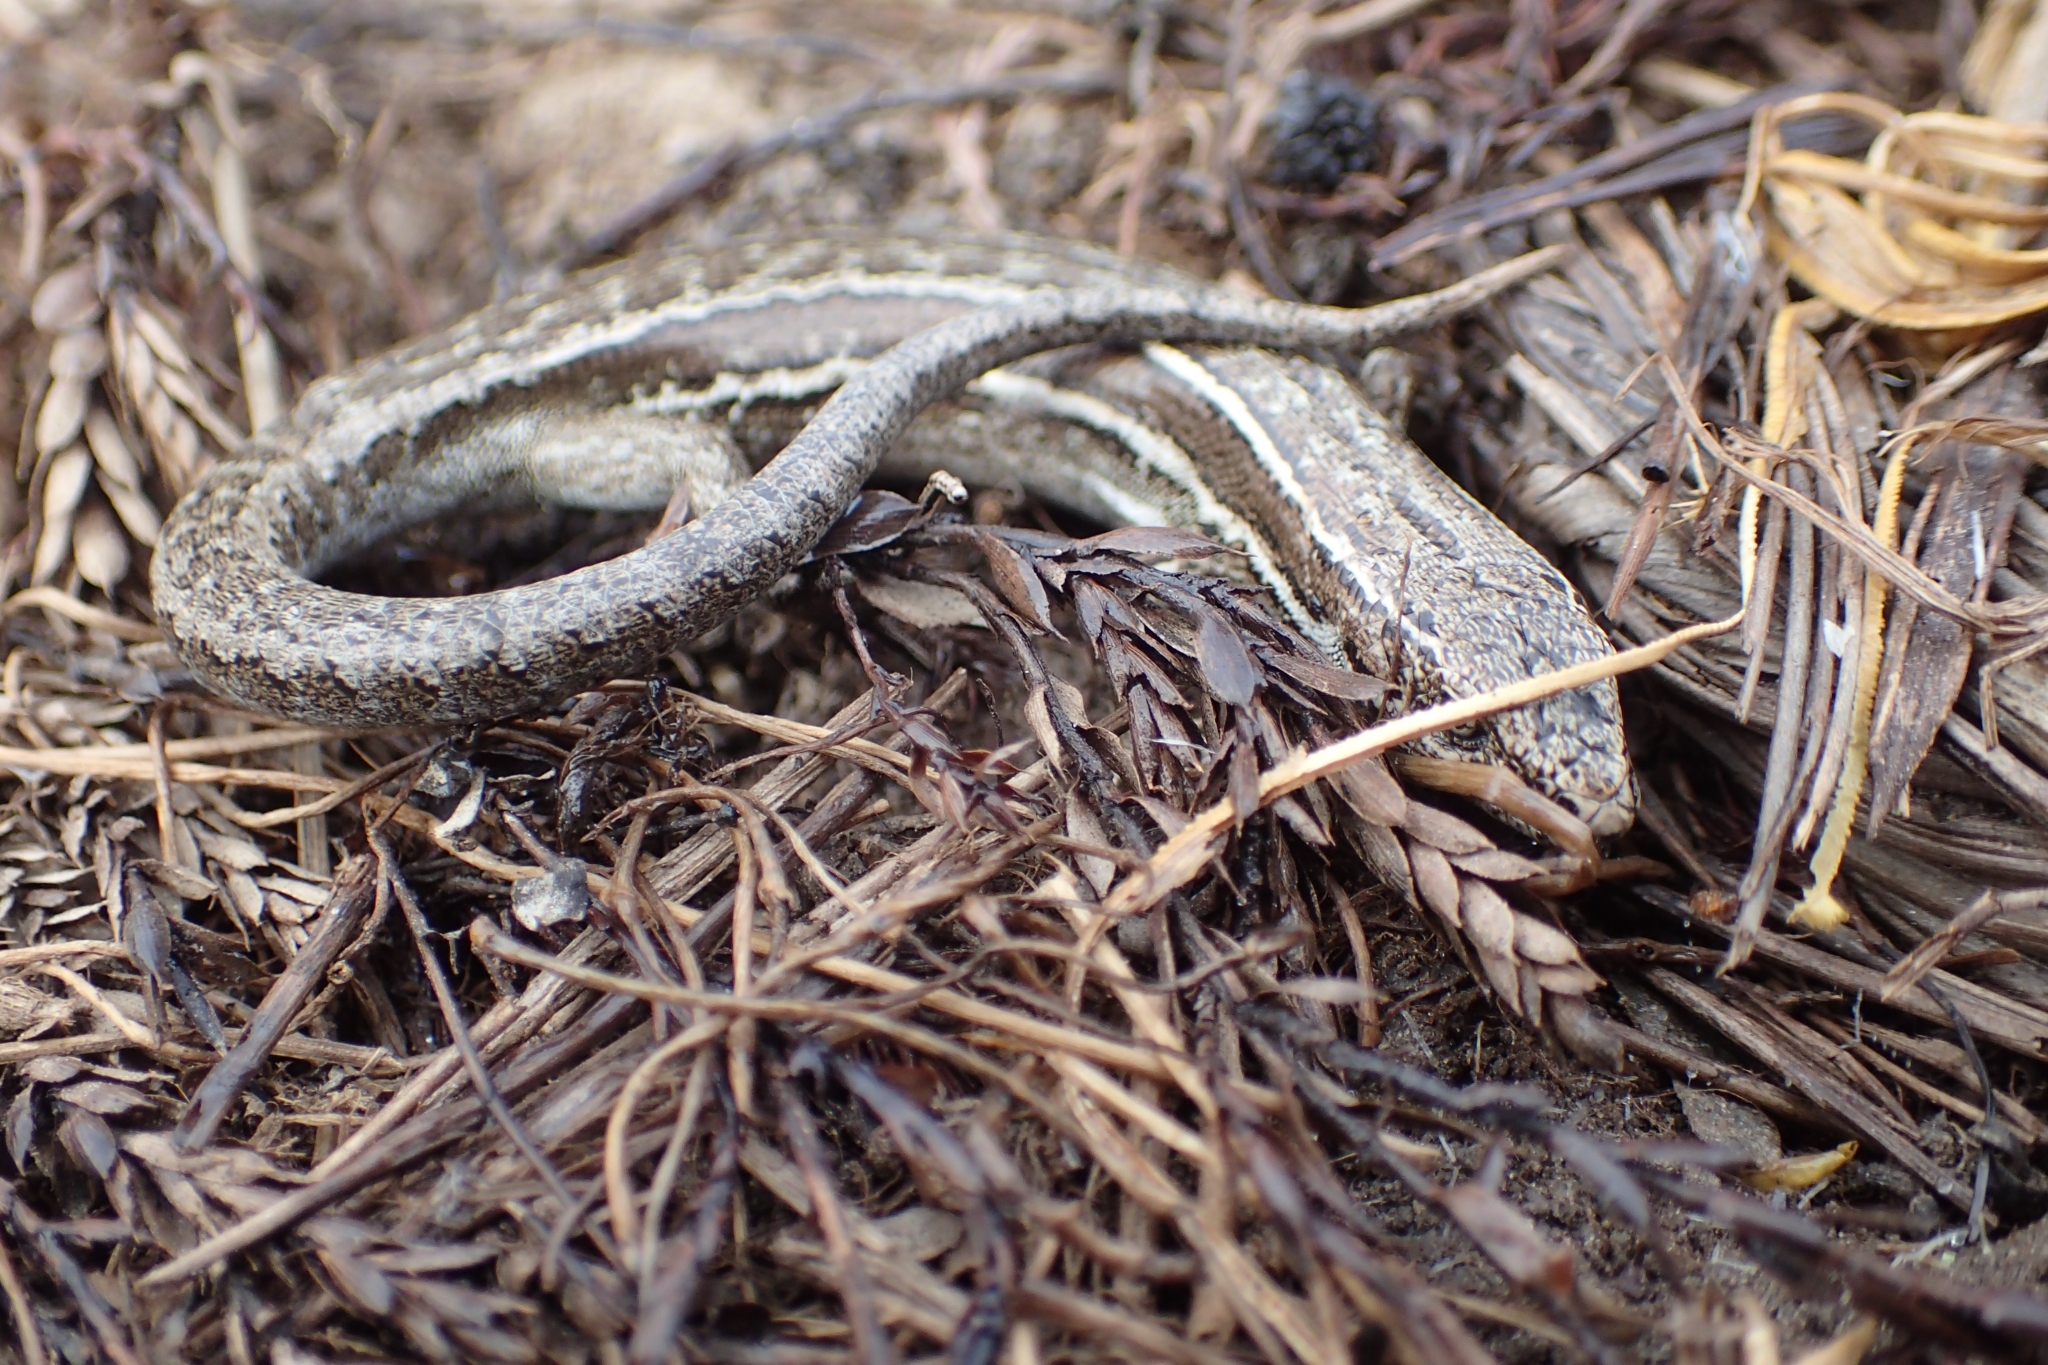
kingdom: Animalia
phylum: Chordata
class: Squamata
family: Scincidae
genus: Oligosoma
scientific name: Oligosoma maccanni
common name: Mccann’s skink
